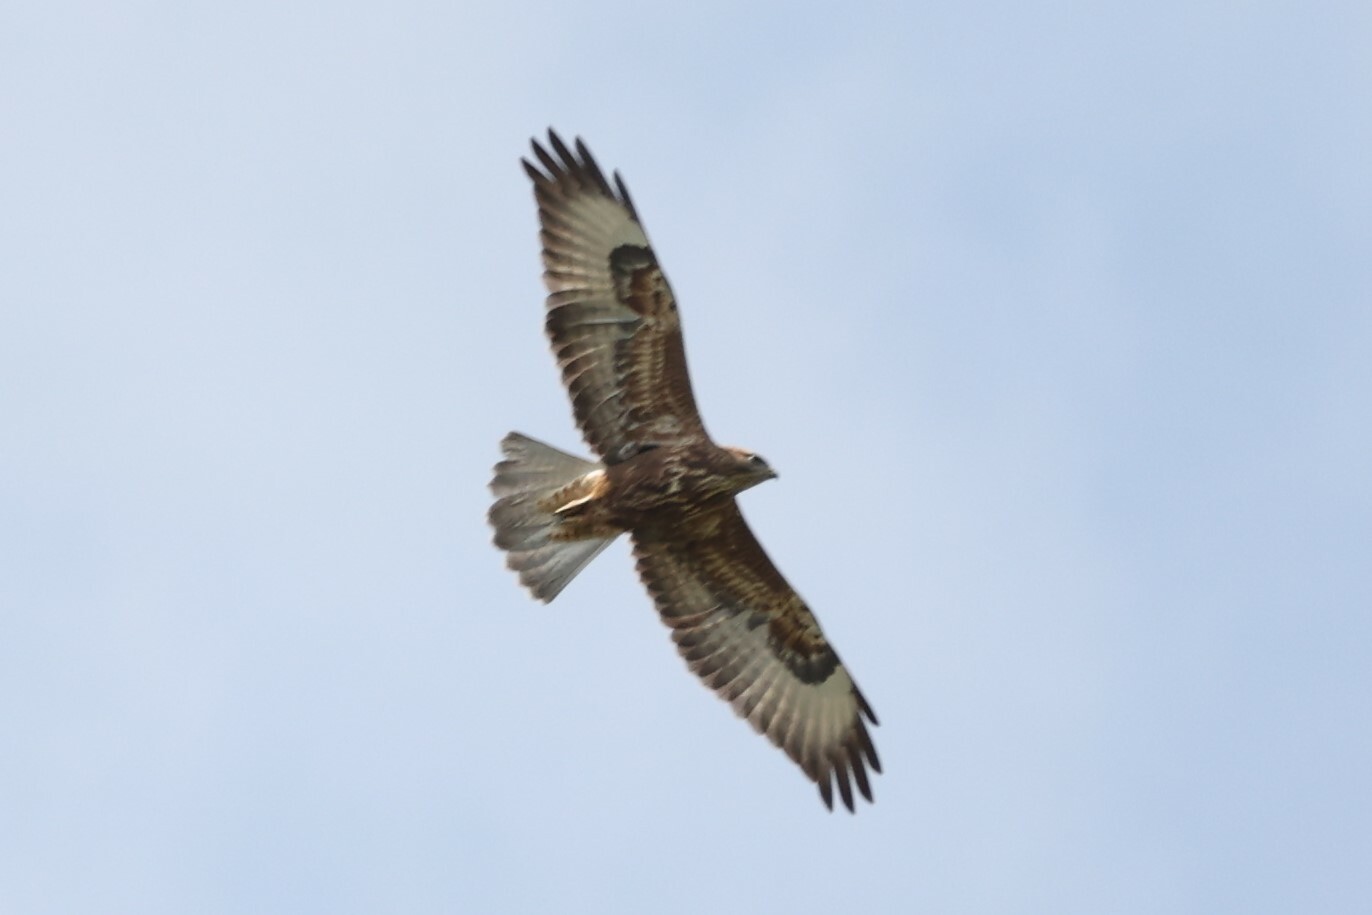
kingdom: Animalia
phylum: Chordata
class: Aves
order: Accipitriformes
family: Accipitridae
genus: Buteo
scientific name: Buteo buteo
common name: Common buzzard
